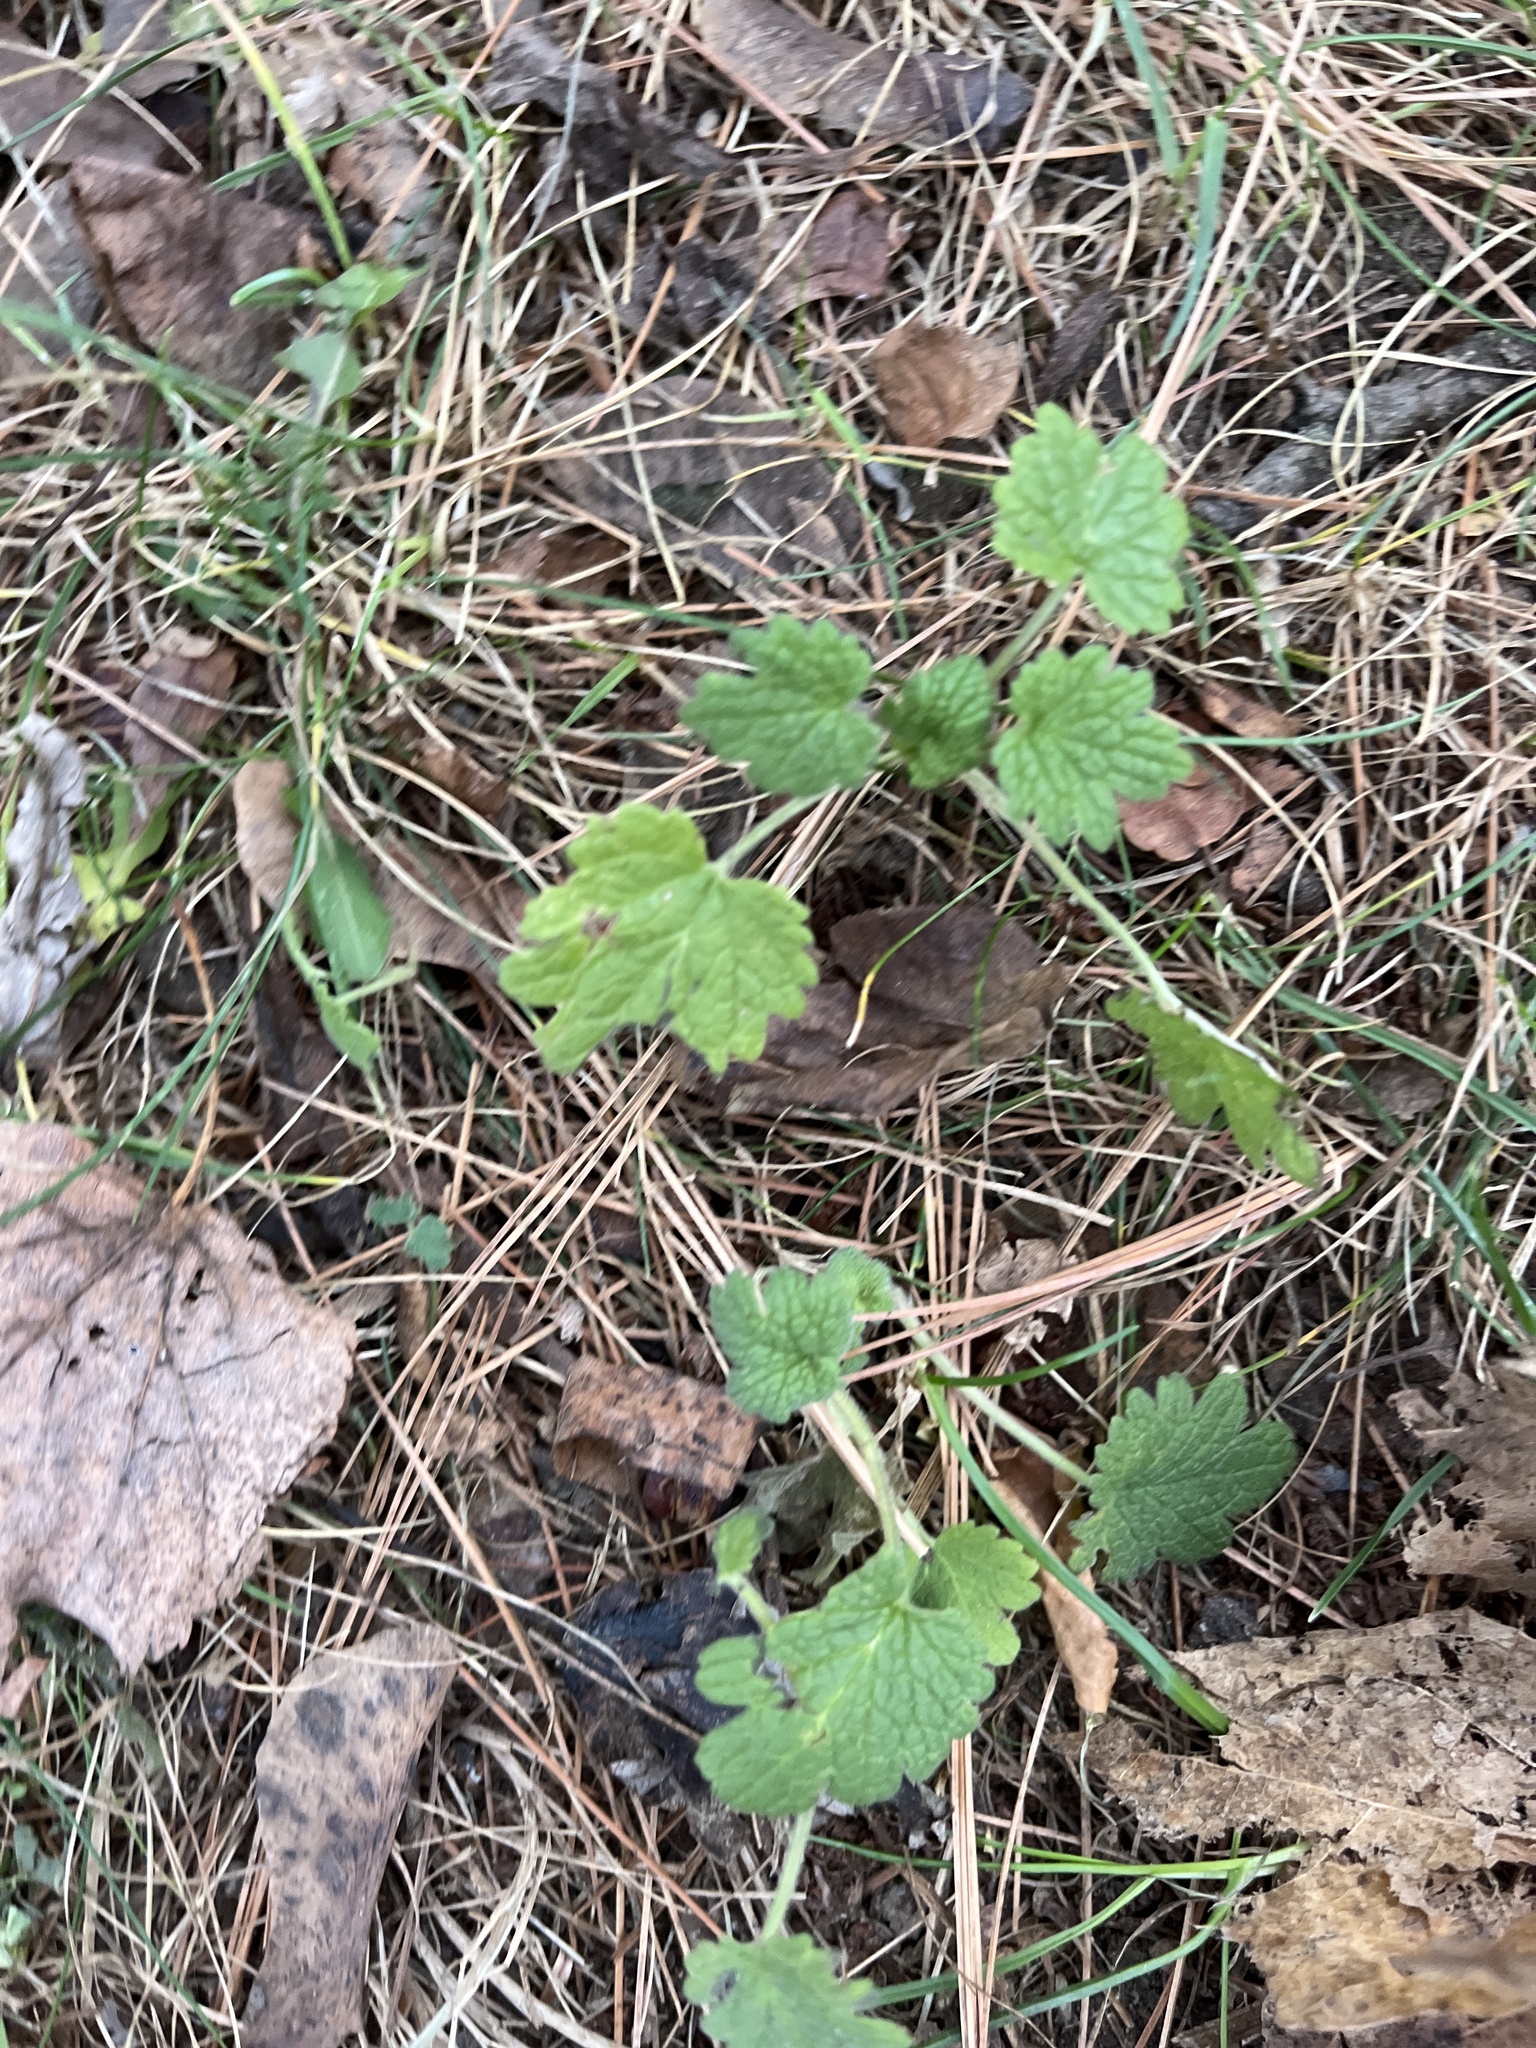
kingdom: Plantae
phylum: Tracheophyta
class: Magnoliopsida
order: Lamiales
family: Lamiaceae
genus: Leonurus
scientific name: Leonurus cardiaca
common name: Motherwort
